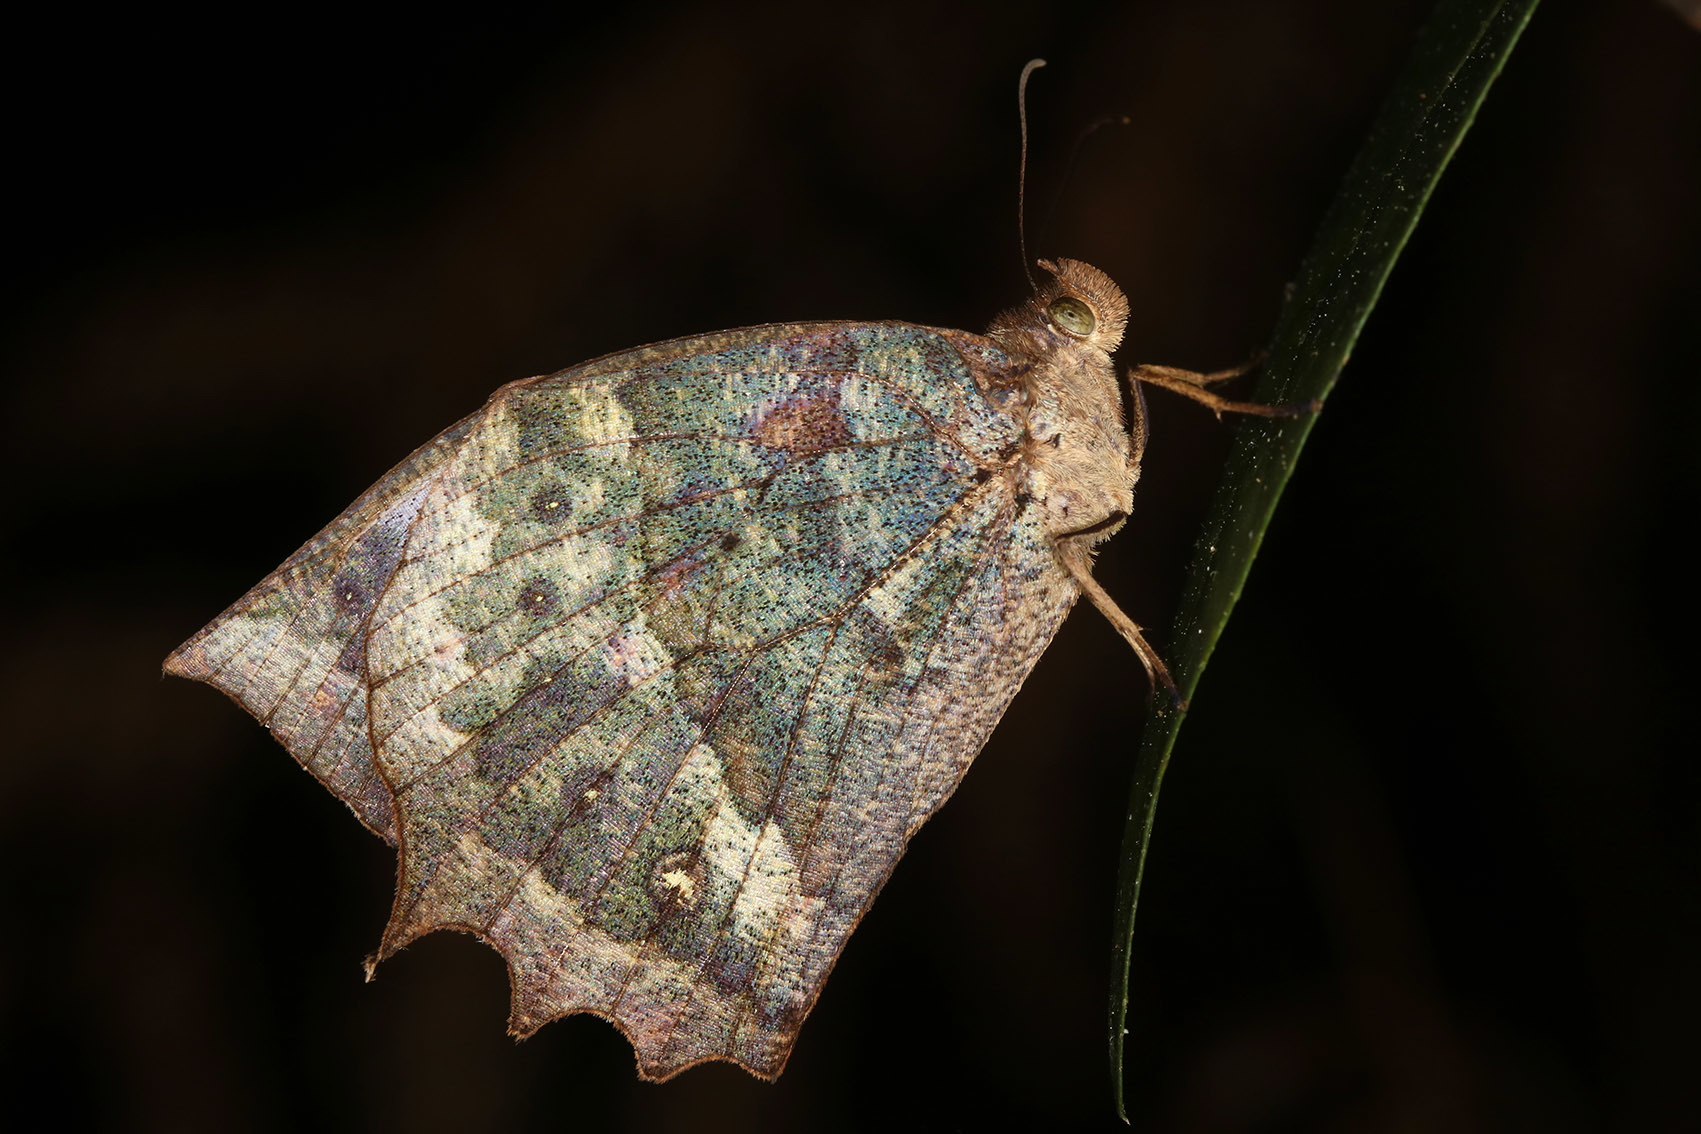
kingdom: Animalia
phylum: Arthropoda
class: Insecta
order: Lepidoptera
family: Nymphalidae
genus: Taguaiba
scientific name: Taguaiba
